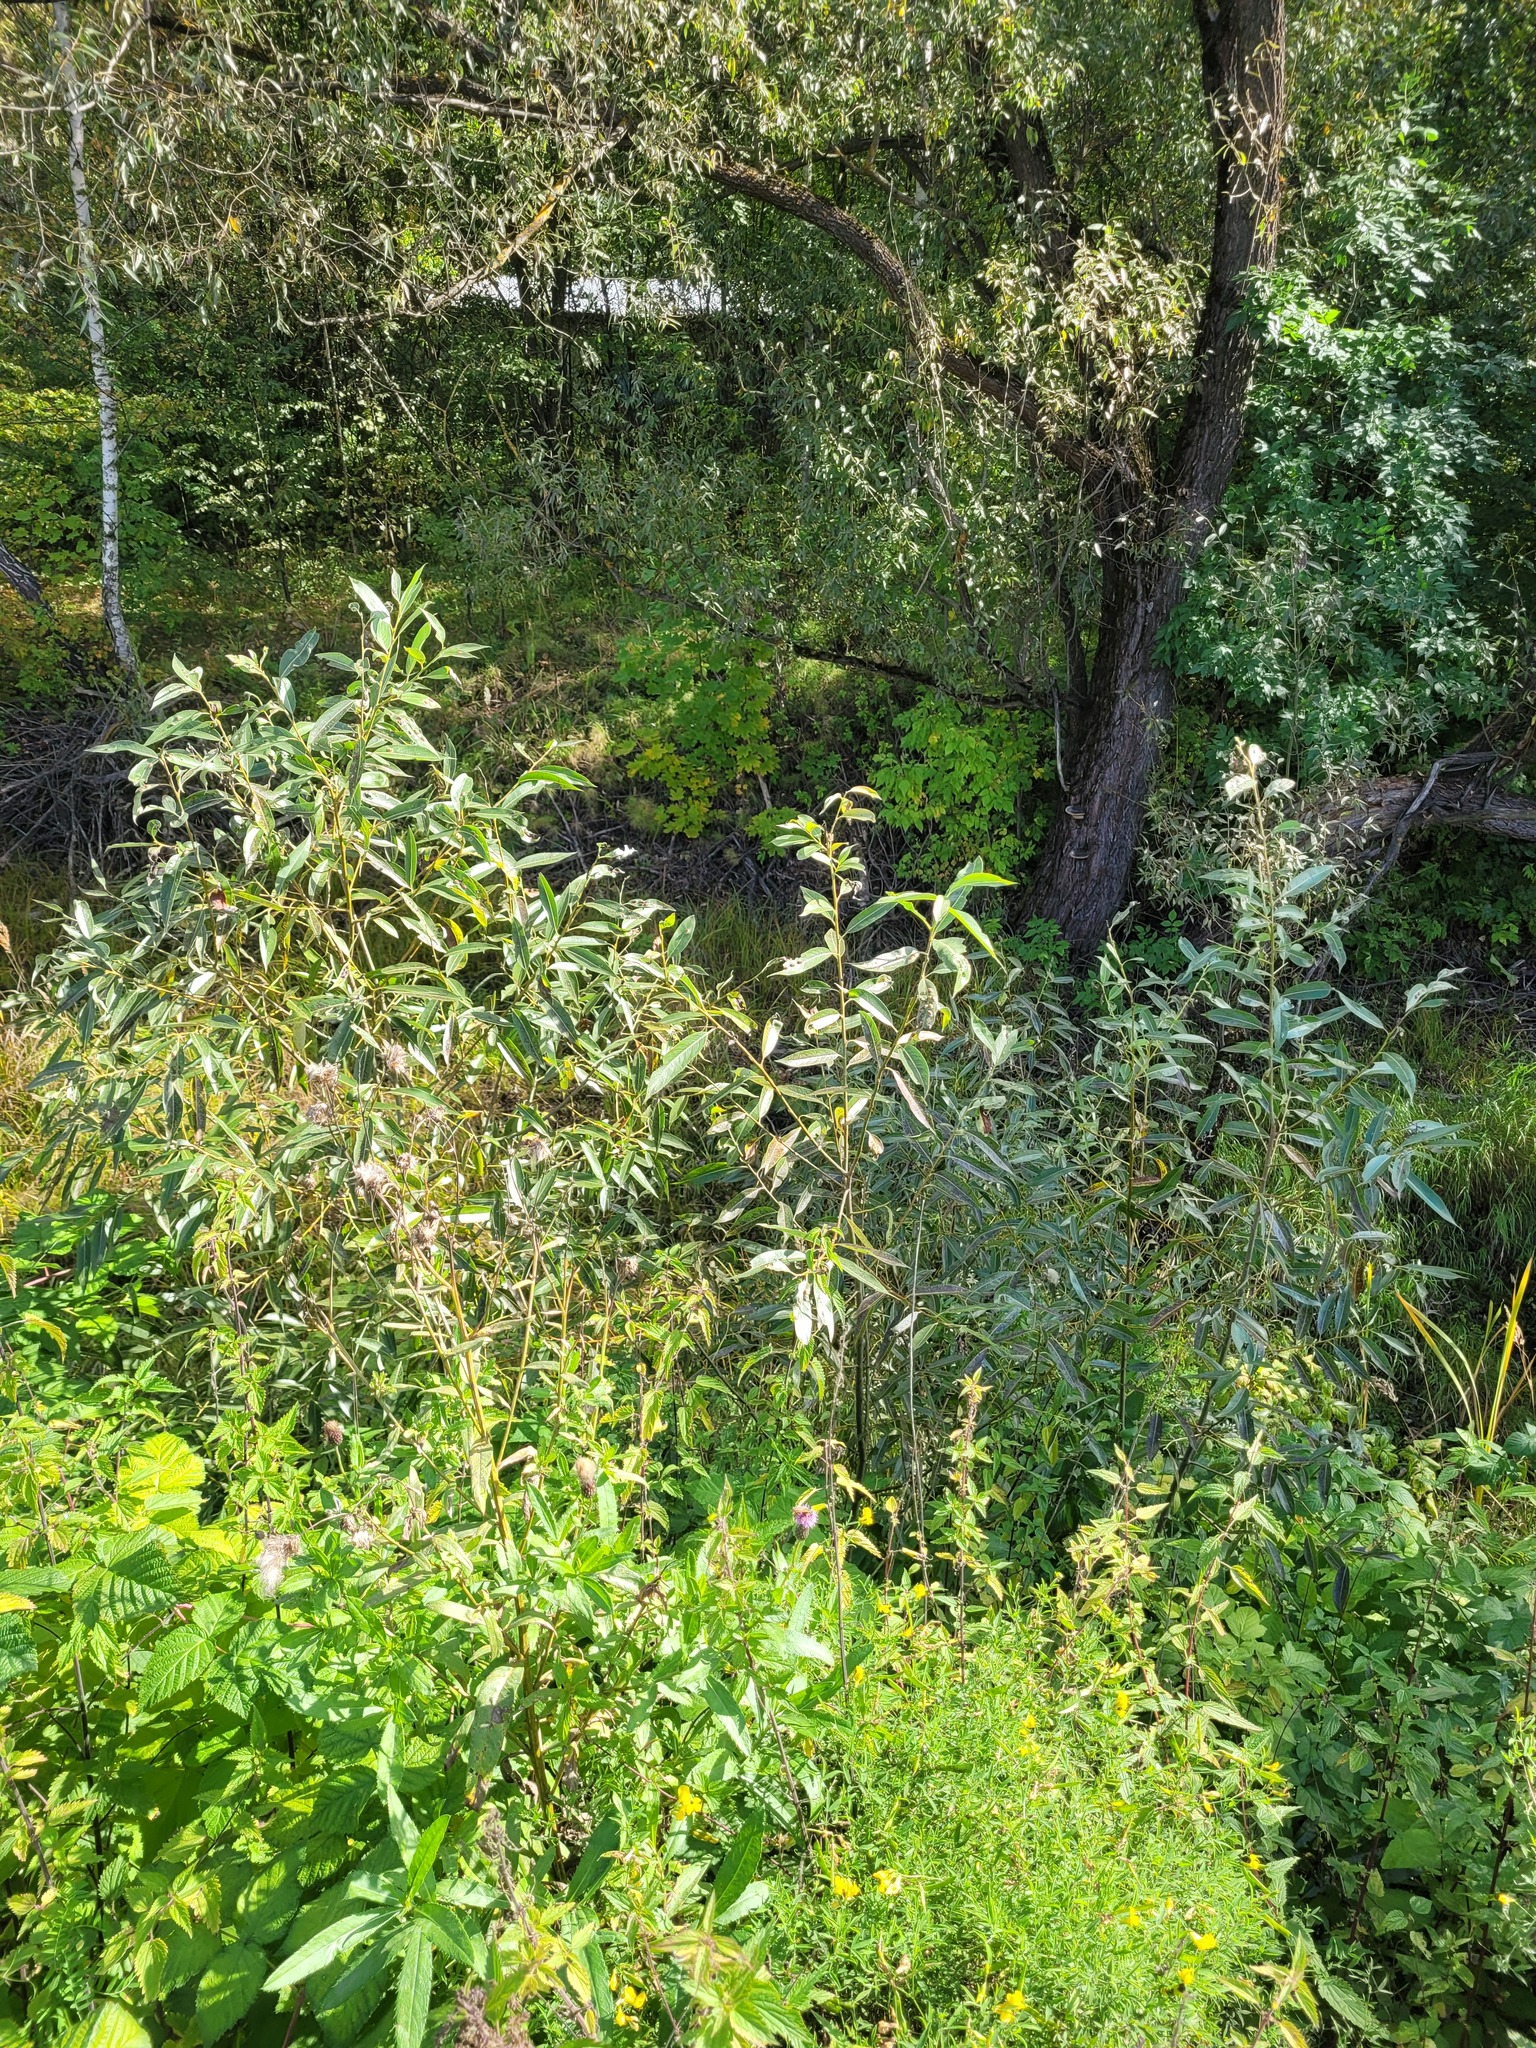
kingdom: Plantae
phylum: Tracheophyta
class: Magnoliopsida
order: Malpighiales
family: Salicaceae
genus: Salix
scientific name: Salix triandra
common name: Almond willow
